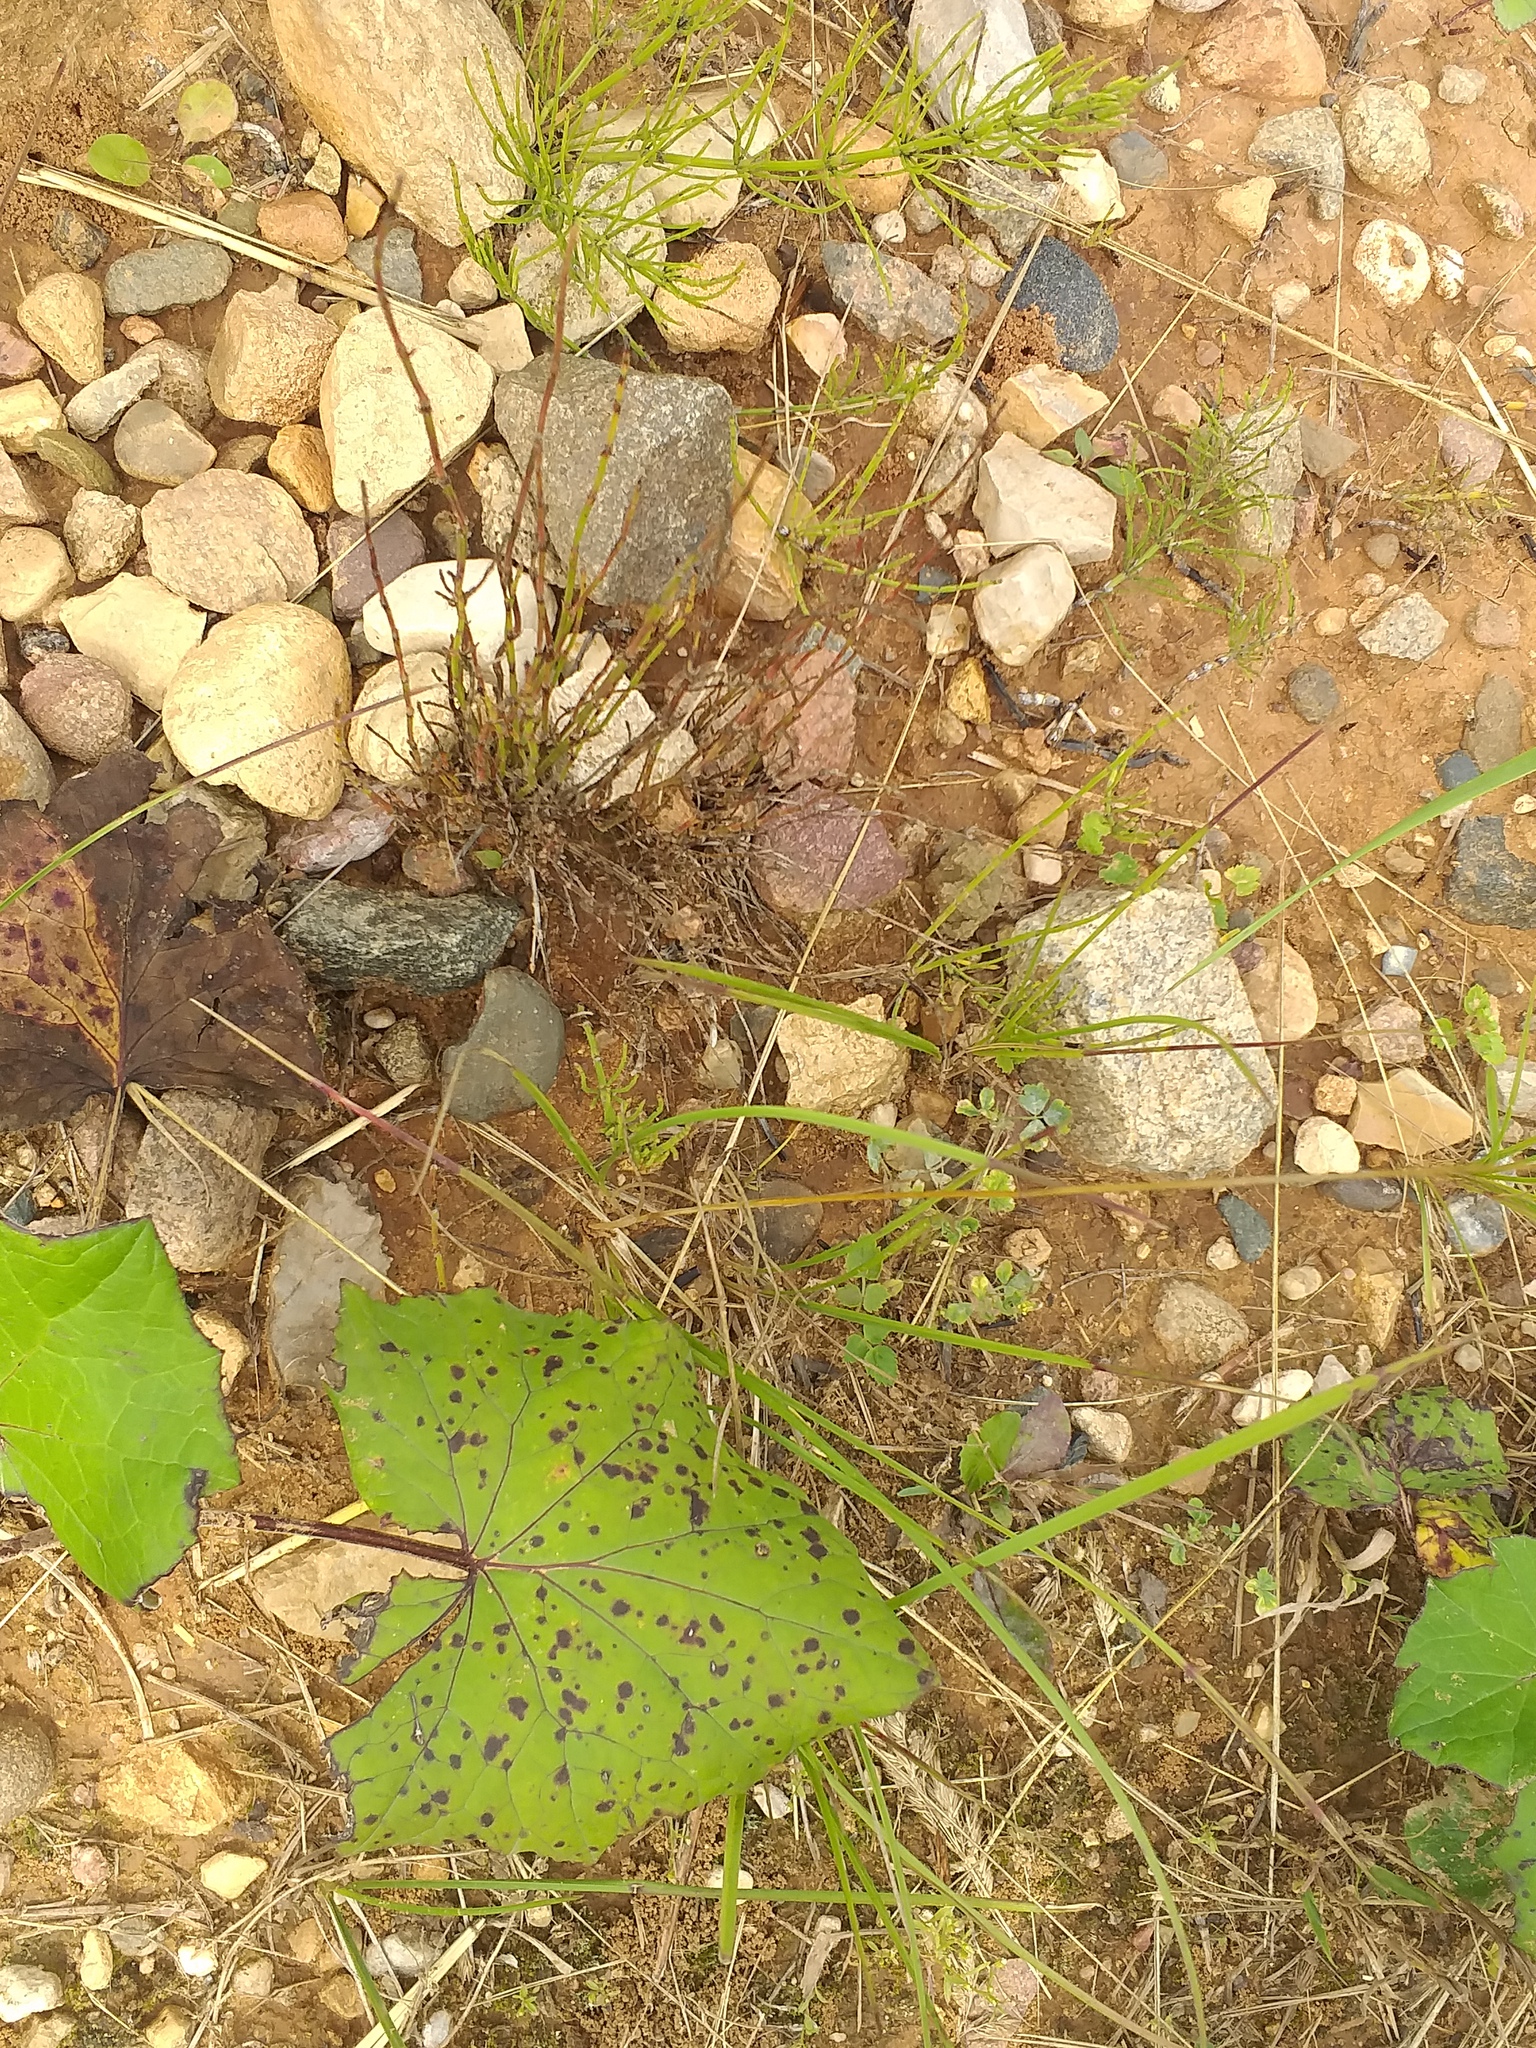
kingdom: Plantae
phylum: Tracheophyta
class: Liliopsida
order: Poales
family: Poaceae
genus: Poa
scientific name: Poa pratensis
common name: Kentucky bluegrass
